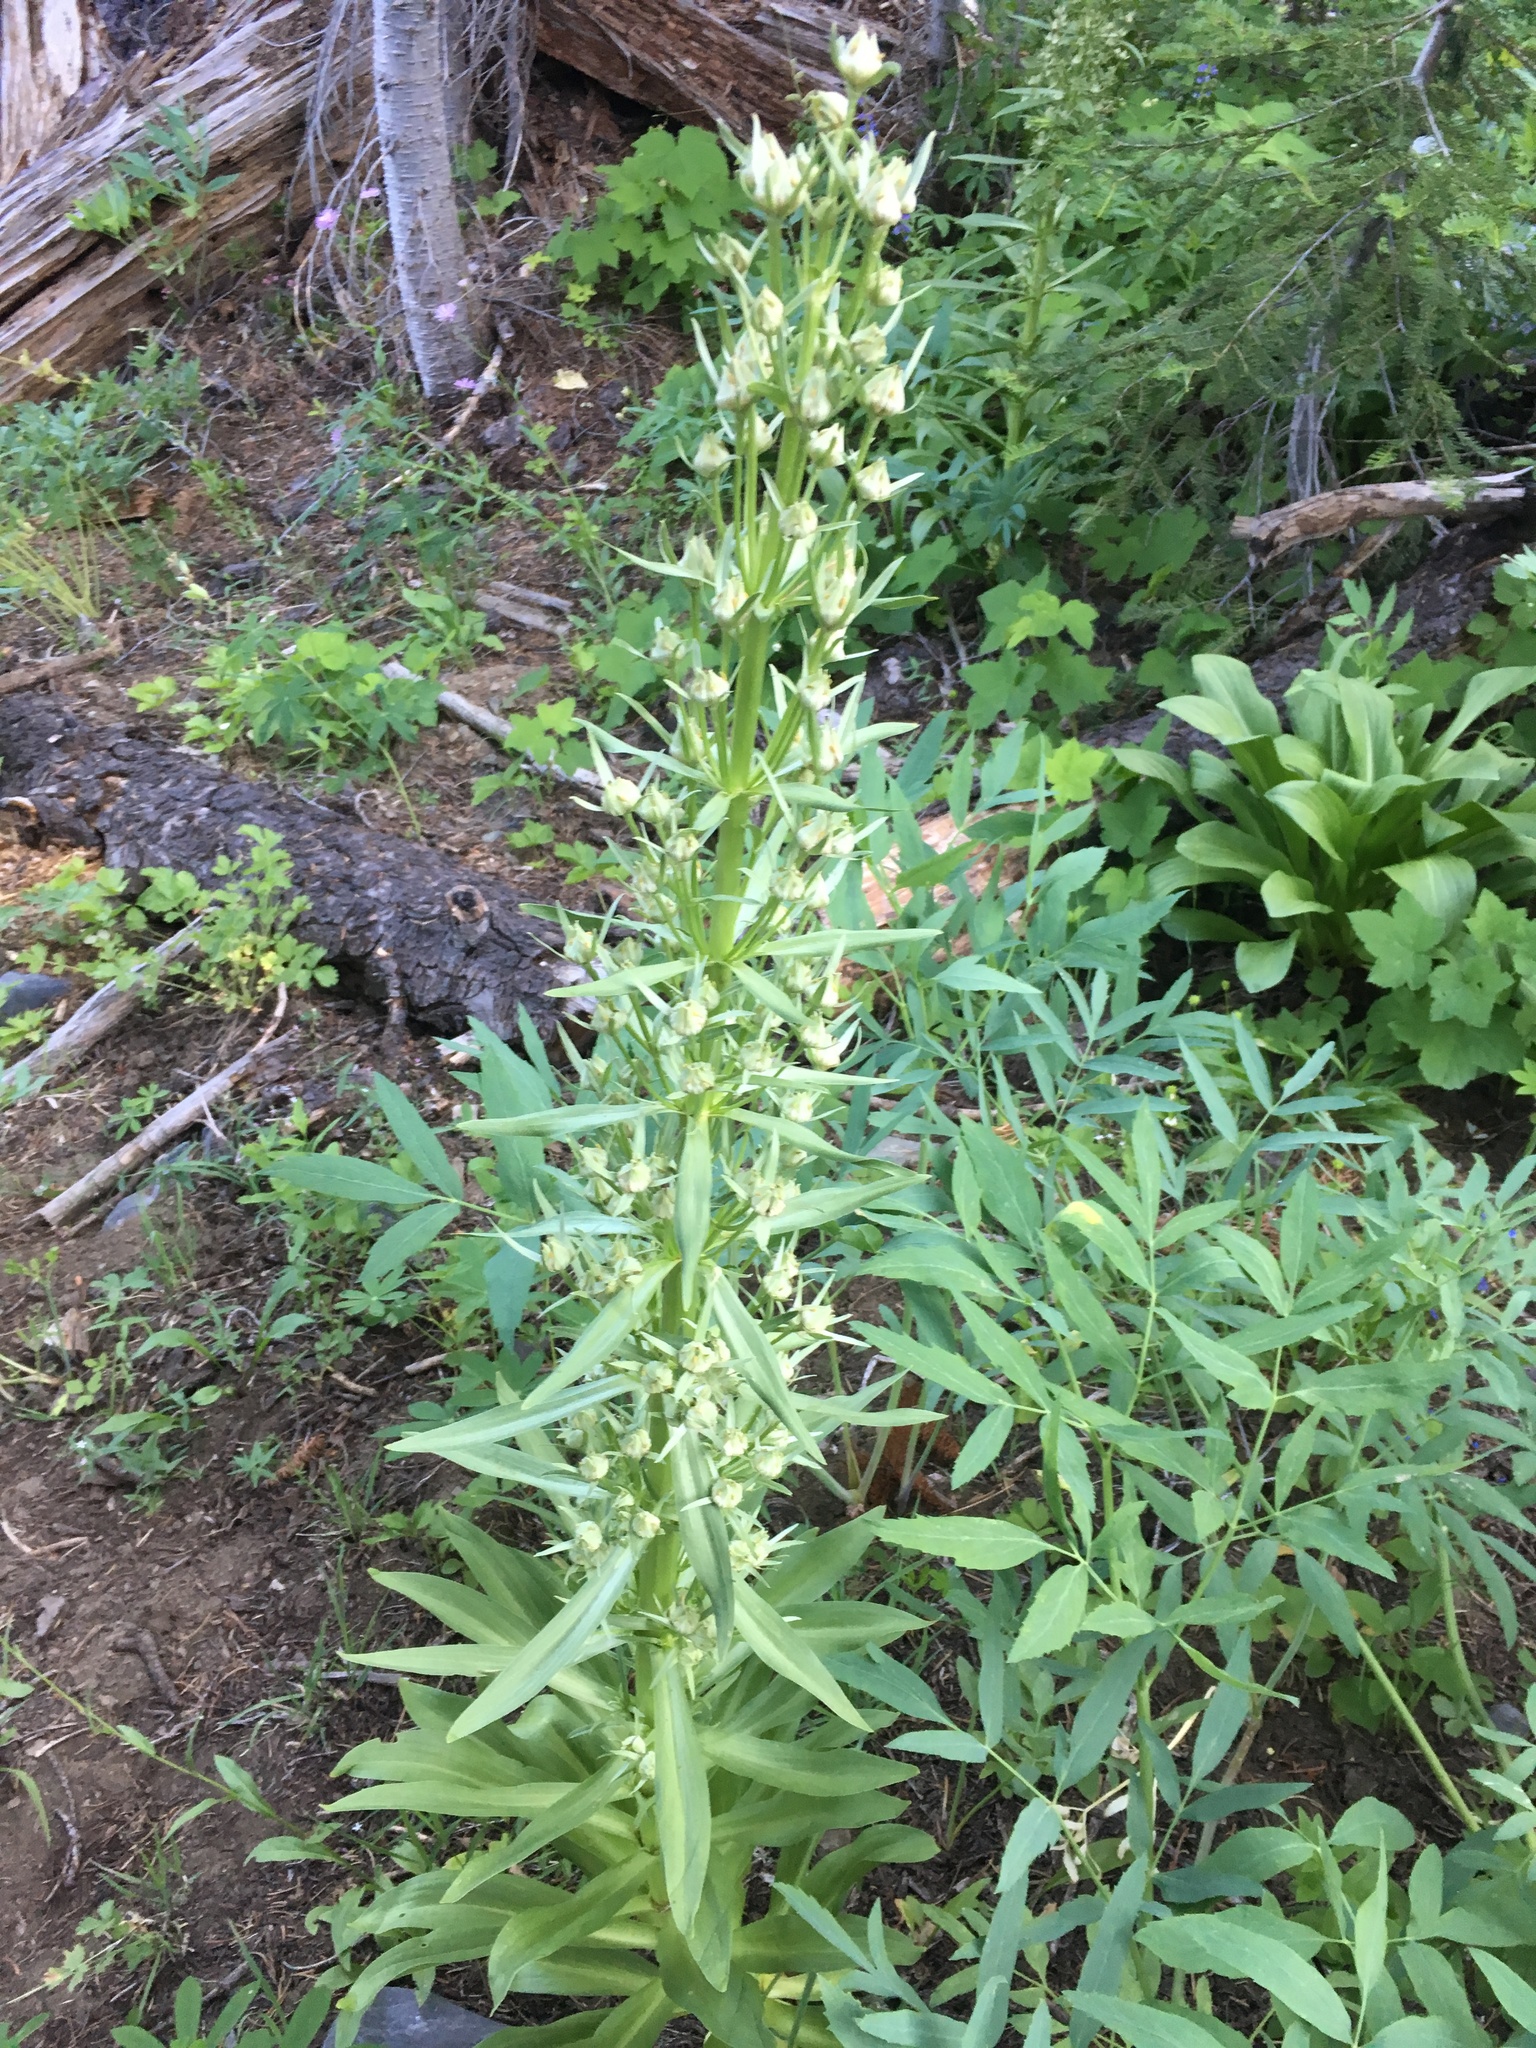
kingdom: Plantae
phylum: Tracheophyta
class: Magnoliopsida
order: Gentianales
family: Gentianaceae
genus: Frasera
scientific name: Frasera speciosa
